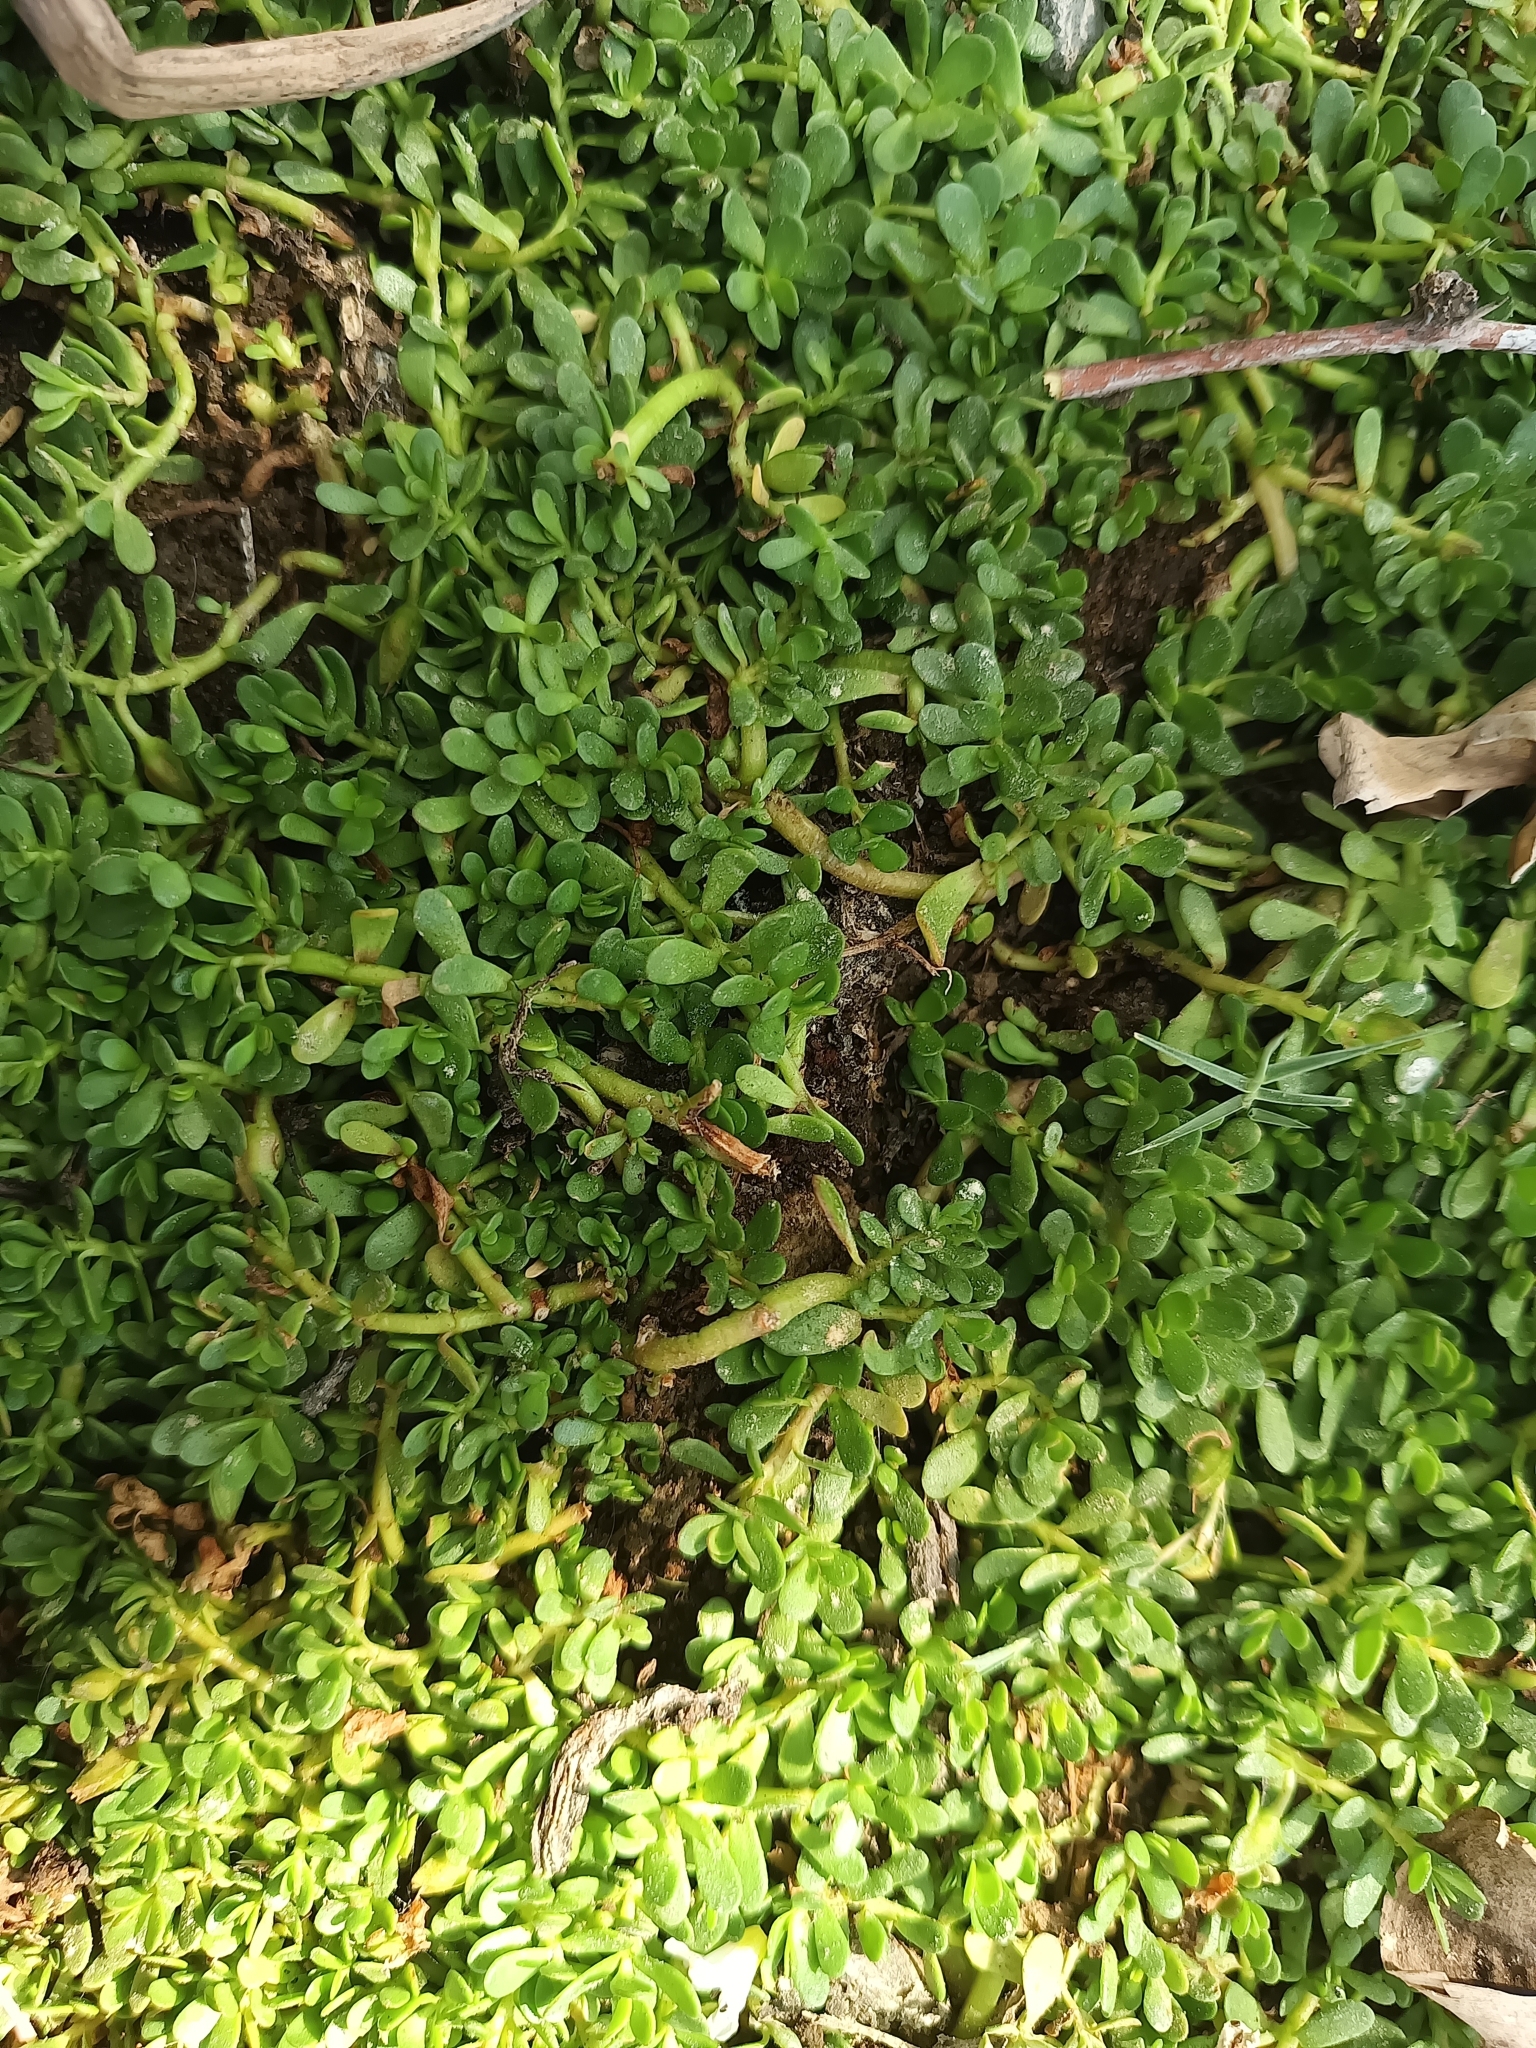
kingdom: Plantae
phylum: Tracheophyta
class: Magnoliopsida
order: Lamiales
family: Plantaginaceae
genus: Bacopa
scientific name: Bacopa monnieri
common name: Indian-pennywort
